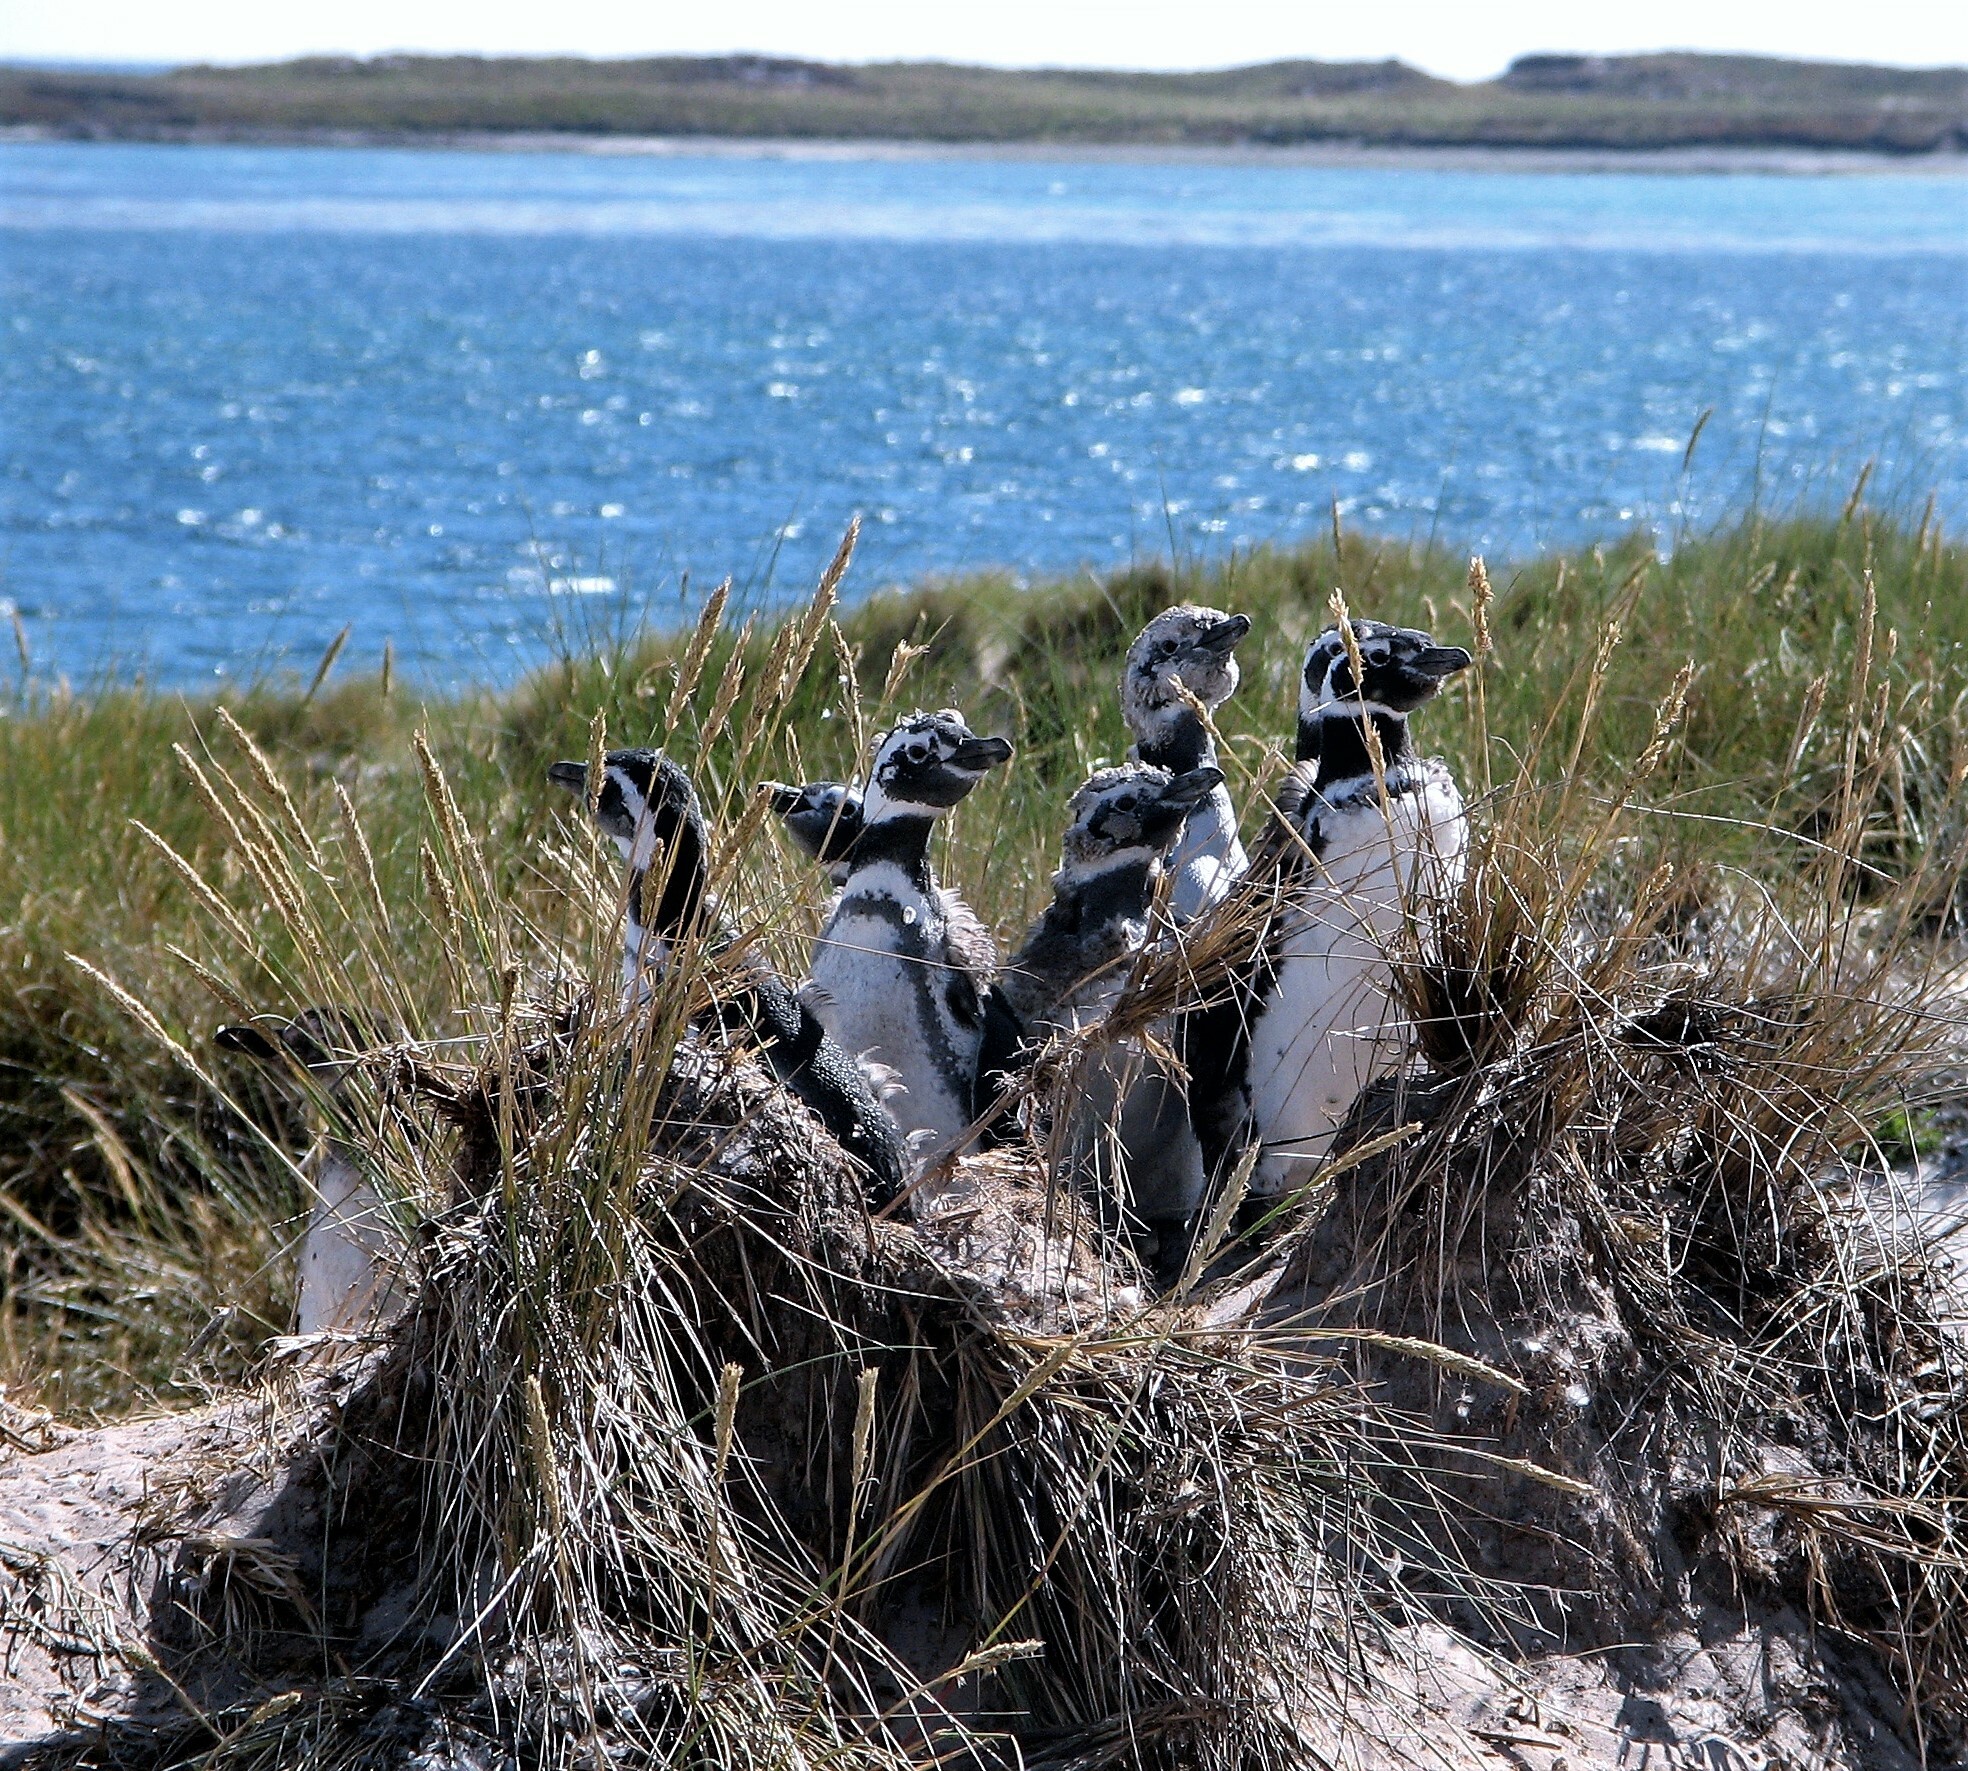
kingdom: Animalia
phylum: Chordata
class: Aves
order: Sphenisciformes
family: Spheniscidae
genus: Spheniscus
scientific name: Spheniscus magellanicus
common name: Magellanic penguin
